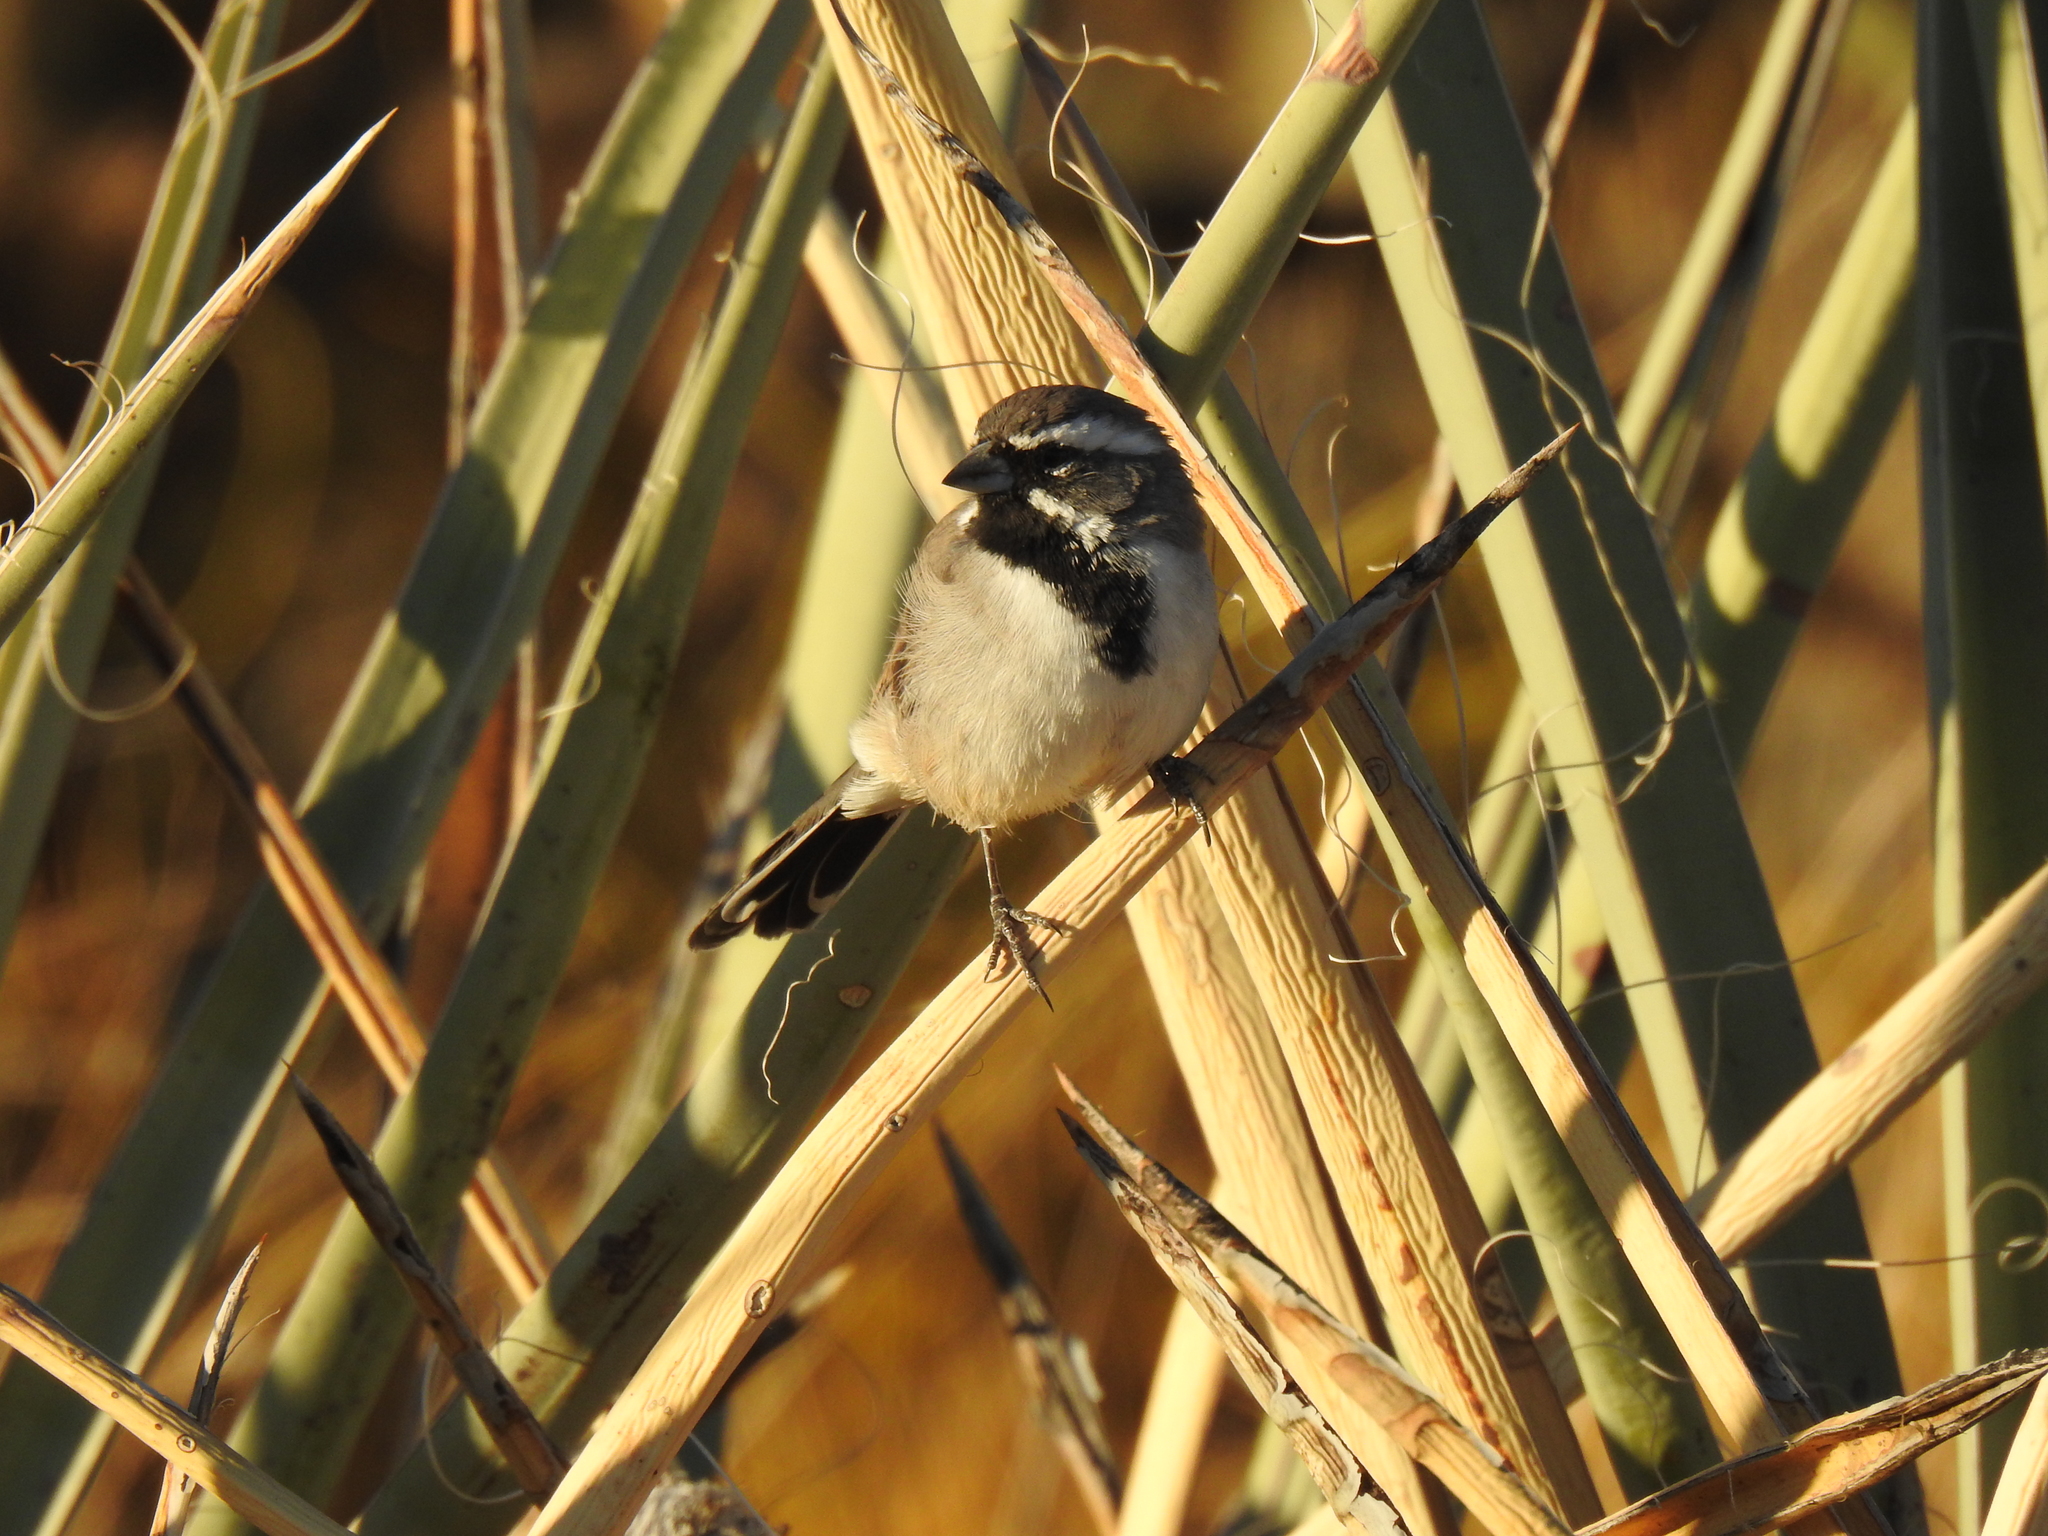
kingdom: Animalia
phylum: Chordata
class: Aves
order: Passeriformes
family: Passerellidae
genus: Amphispiza
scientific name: Amphispiza bilineata
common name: Black-throated sparrow
